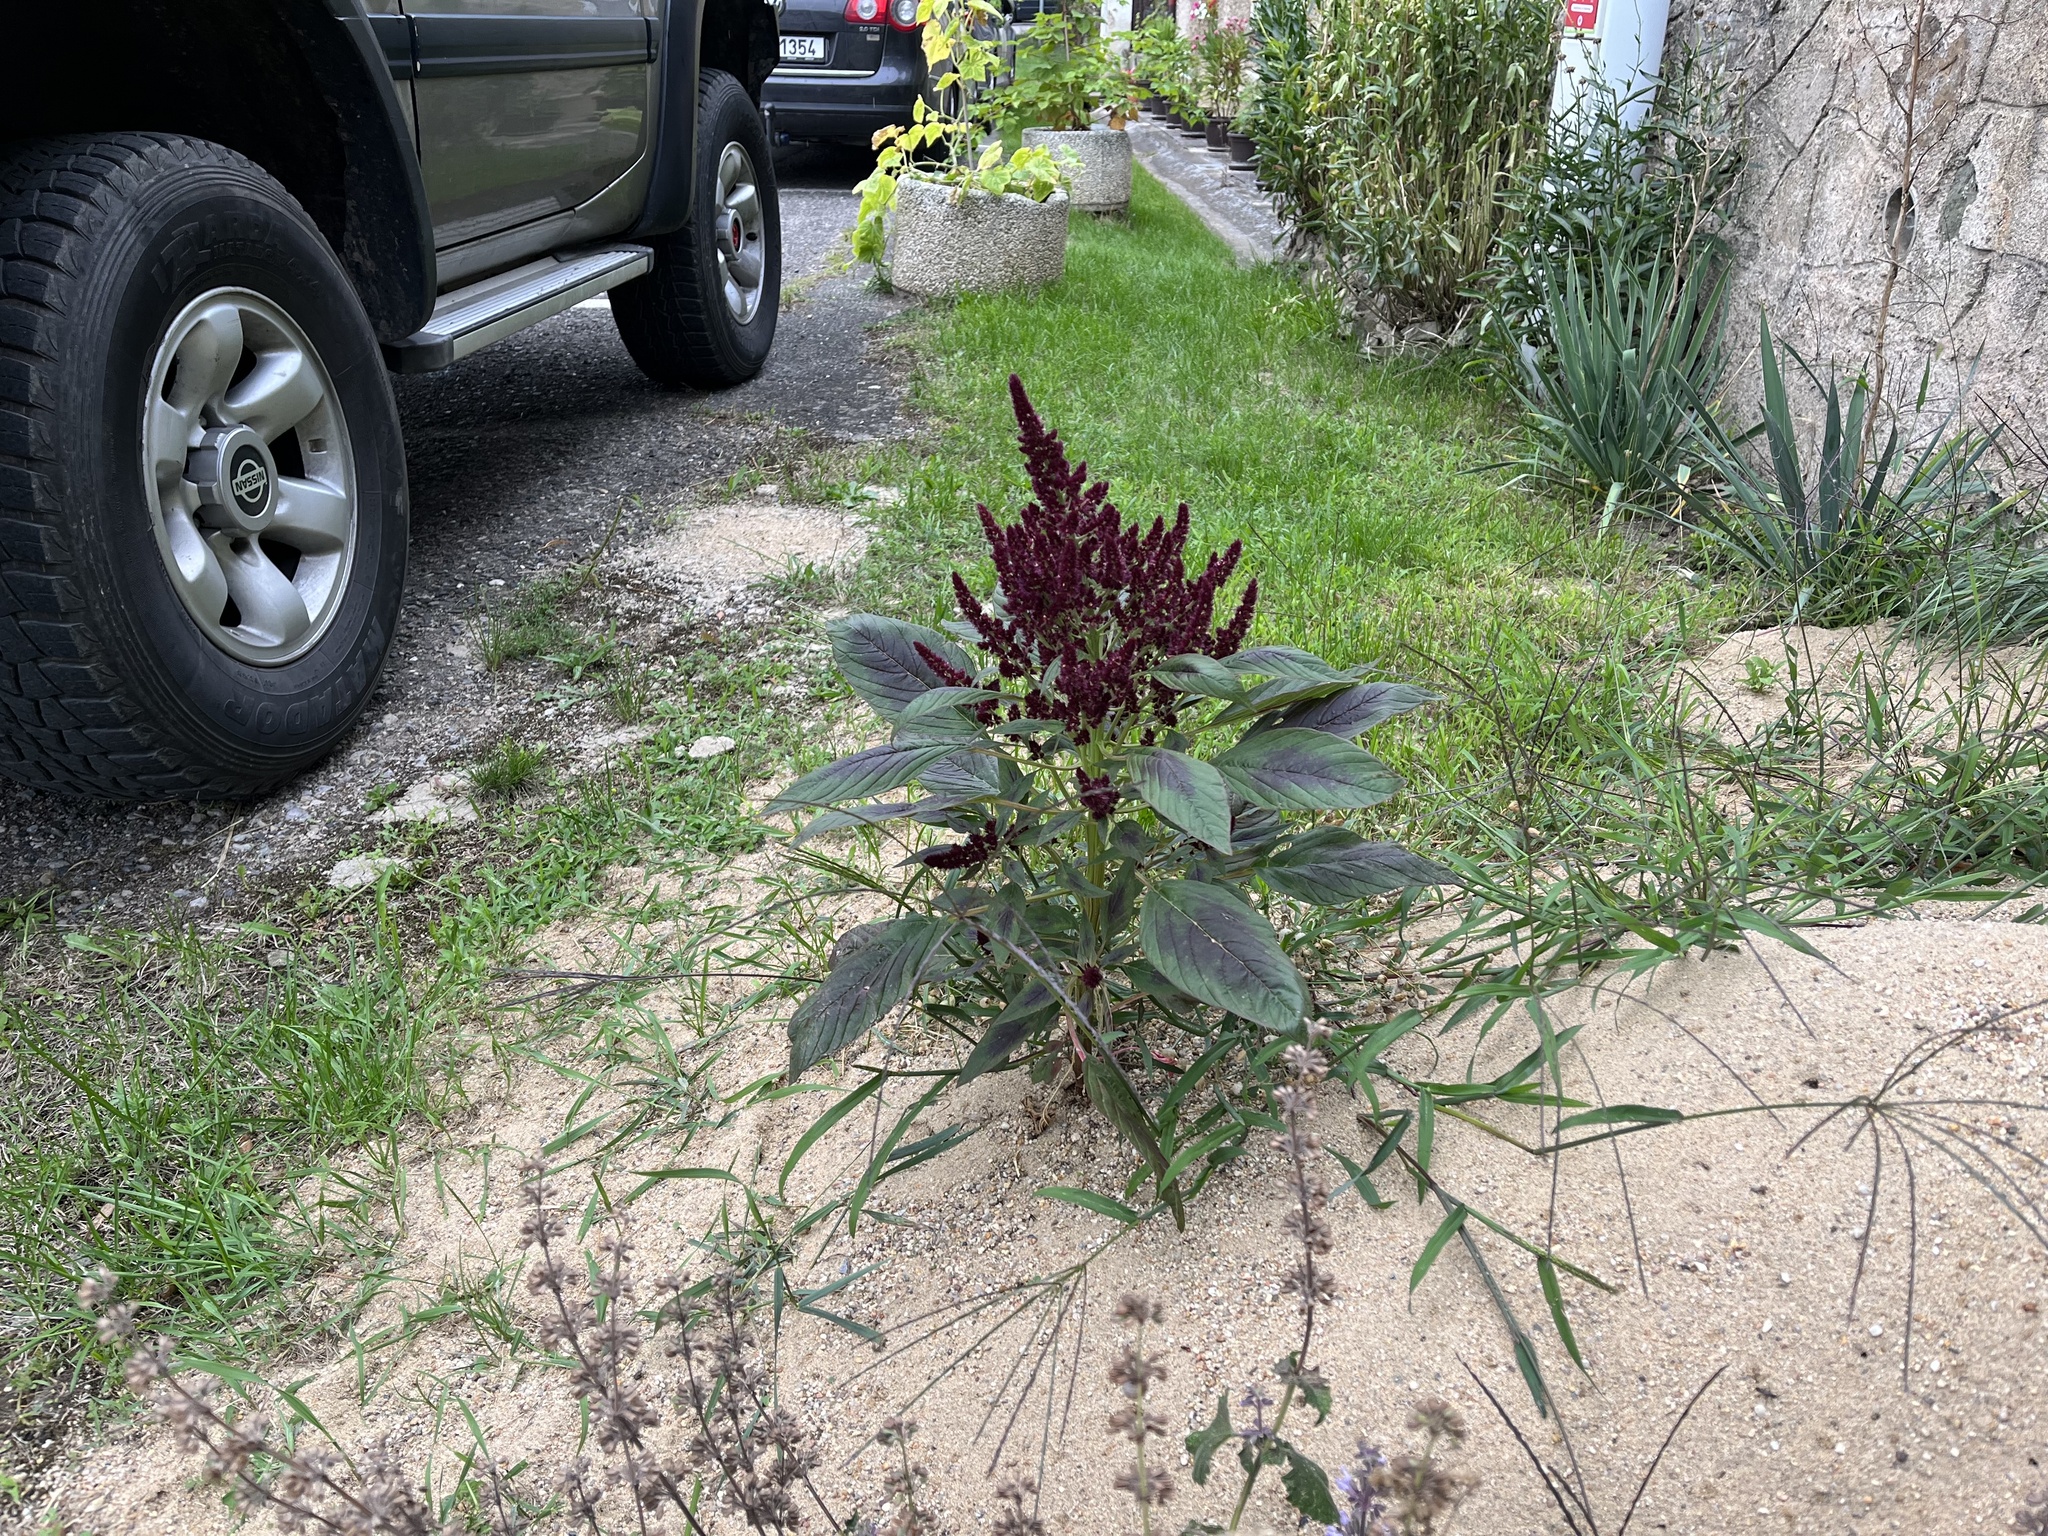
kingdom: Plantae
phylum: Tracheophyta
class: Magnoliopsida
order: Caryophyllales
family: Amaranthaceae
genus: Amaranthus
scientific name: Amaranthus cruentus
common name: Purple amaranth
